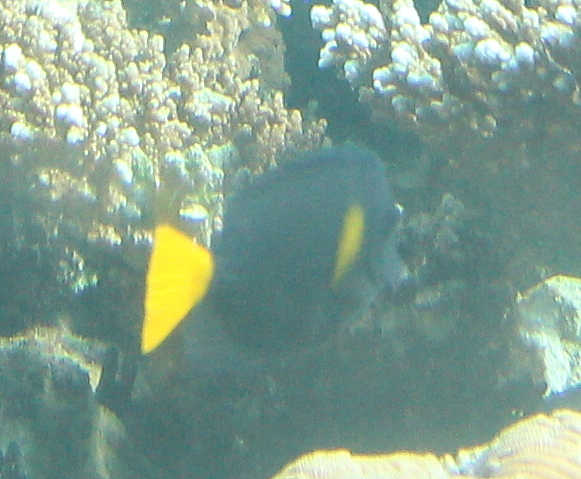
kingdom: Animalia
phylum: Chordata
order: Perciformes
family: Acanthuridae
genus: Zebrasoma
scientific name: Zebrasoma xanthurum
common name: Purple tang
